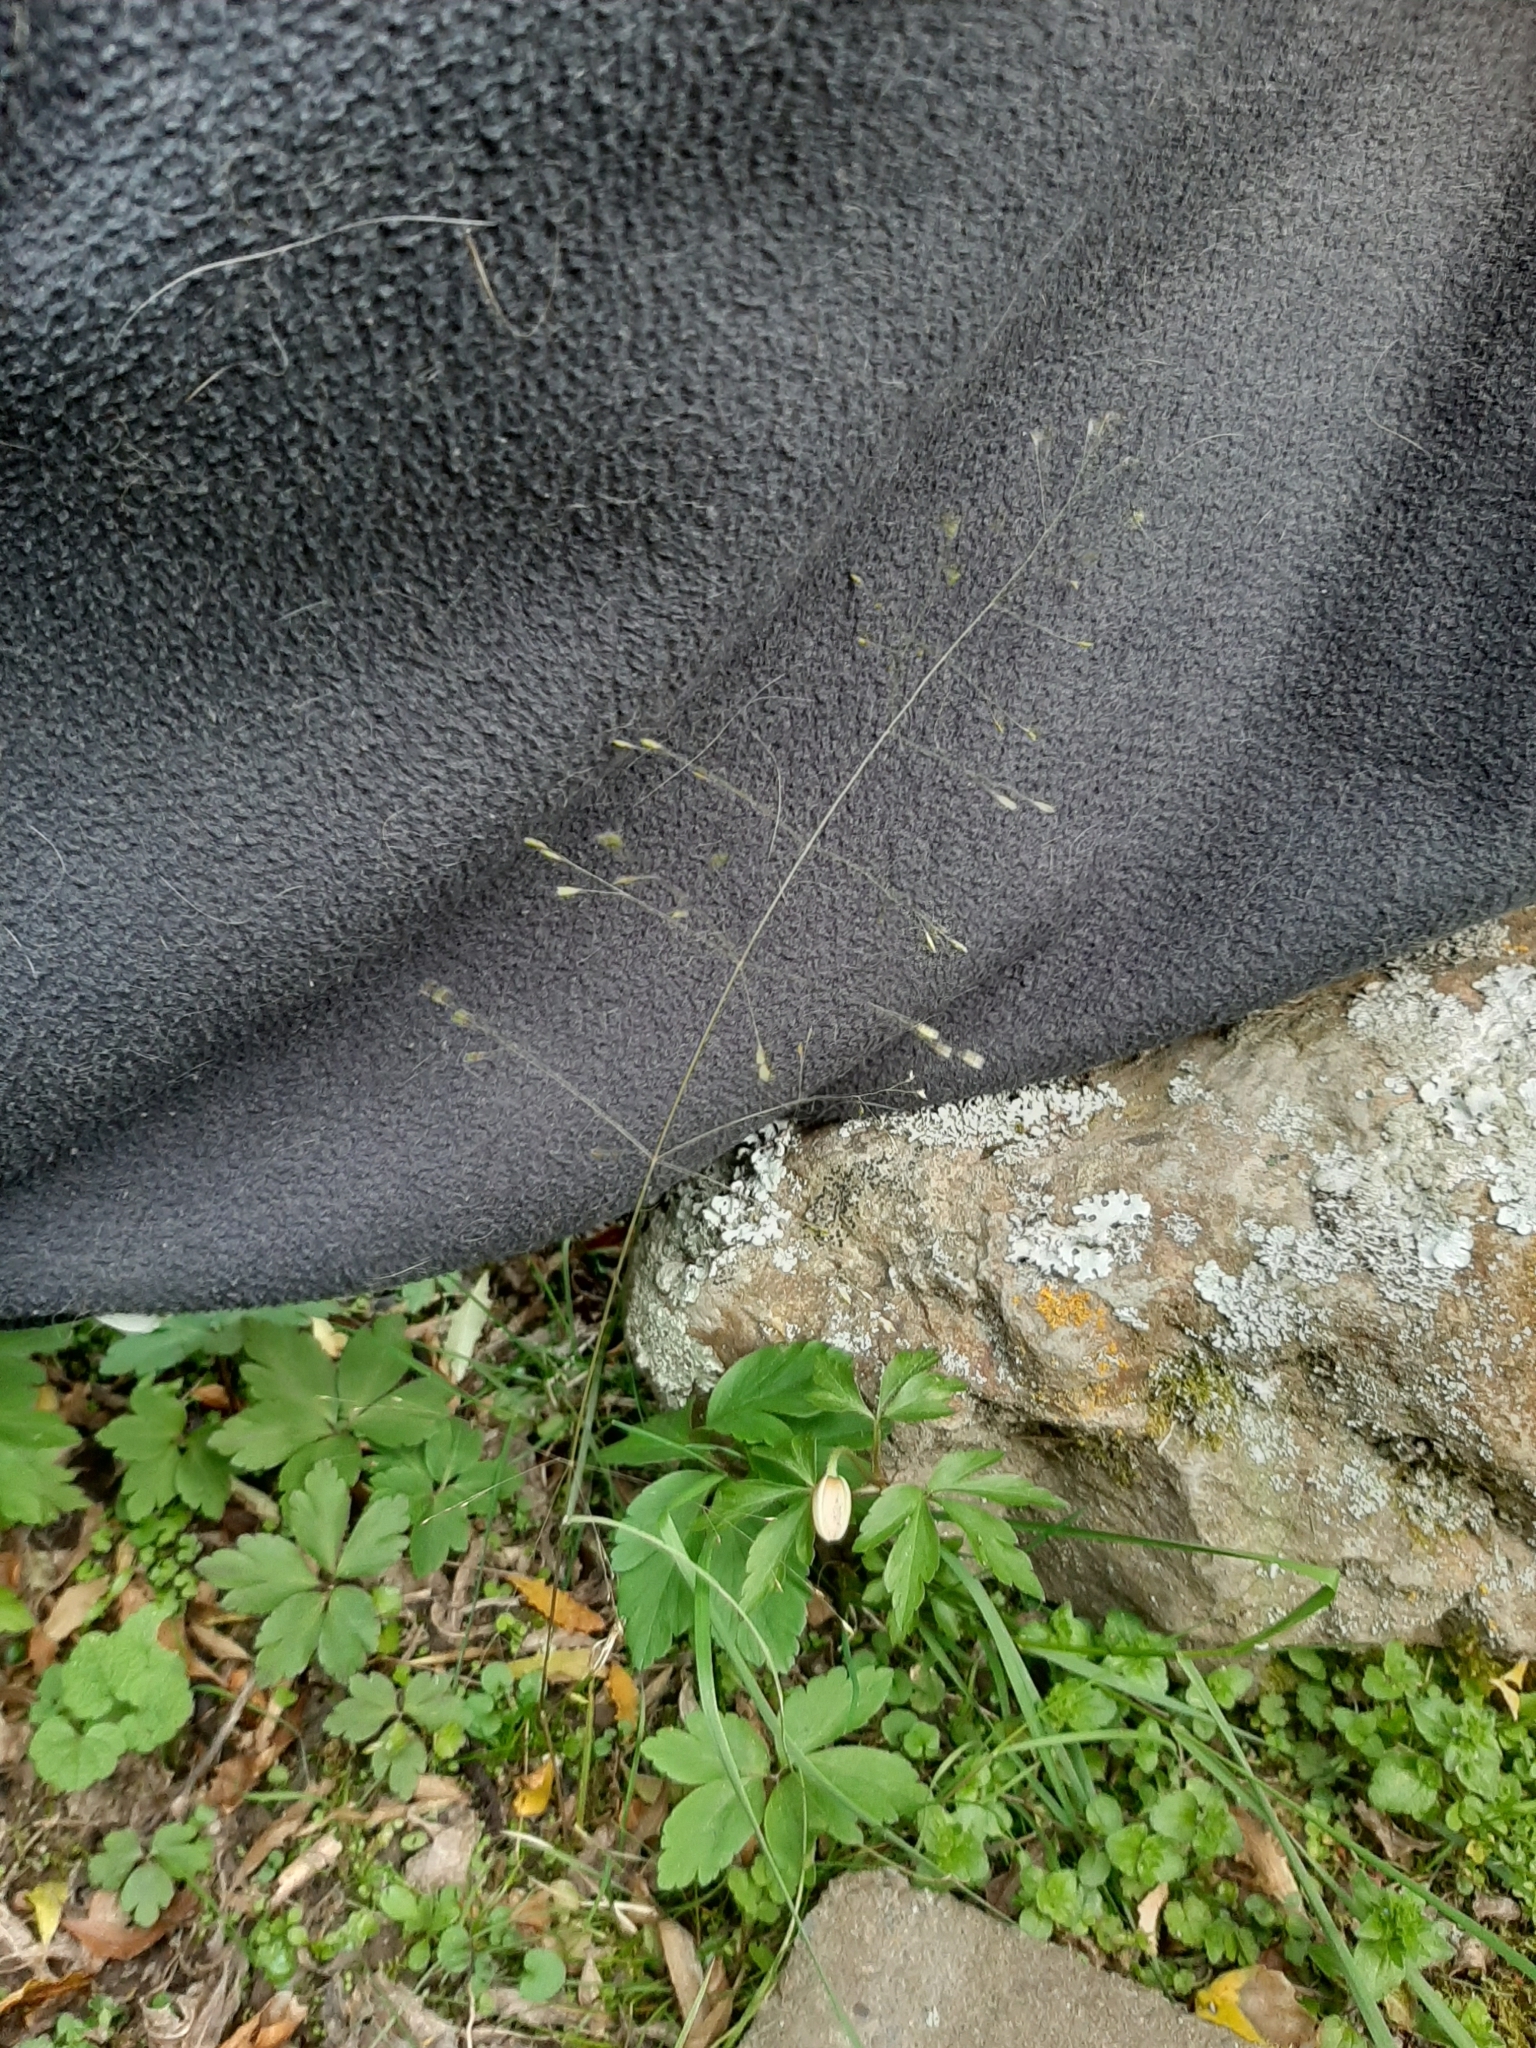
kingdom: Plantae
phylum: Tracheophyta
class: Liliopsida
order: Poales
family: Poaceae
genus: Poa
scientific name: Poa imbecilla
